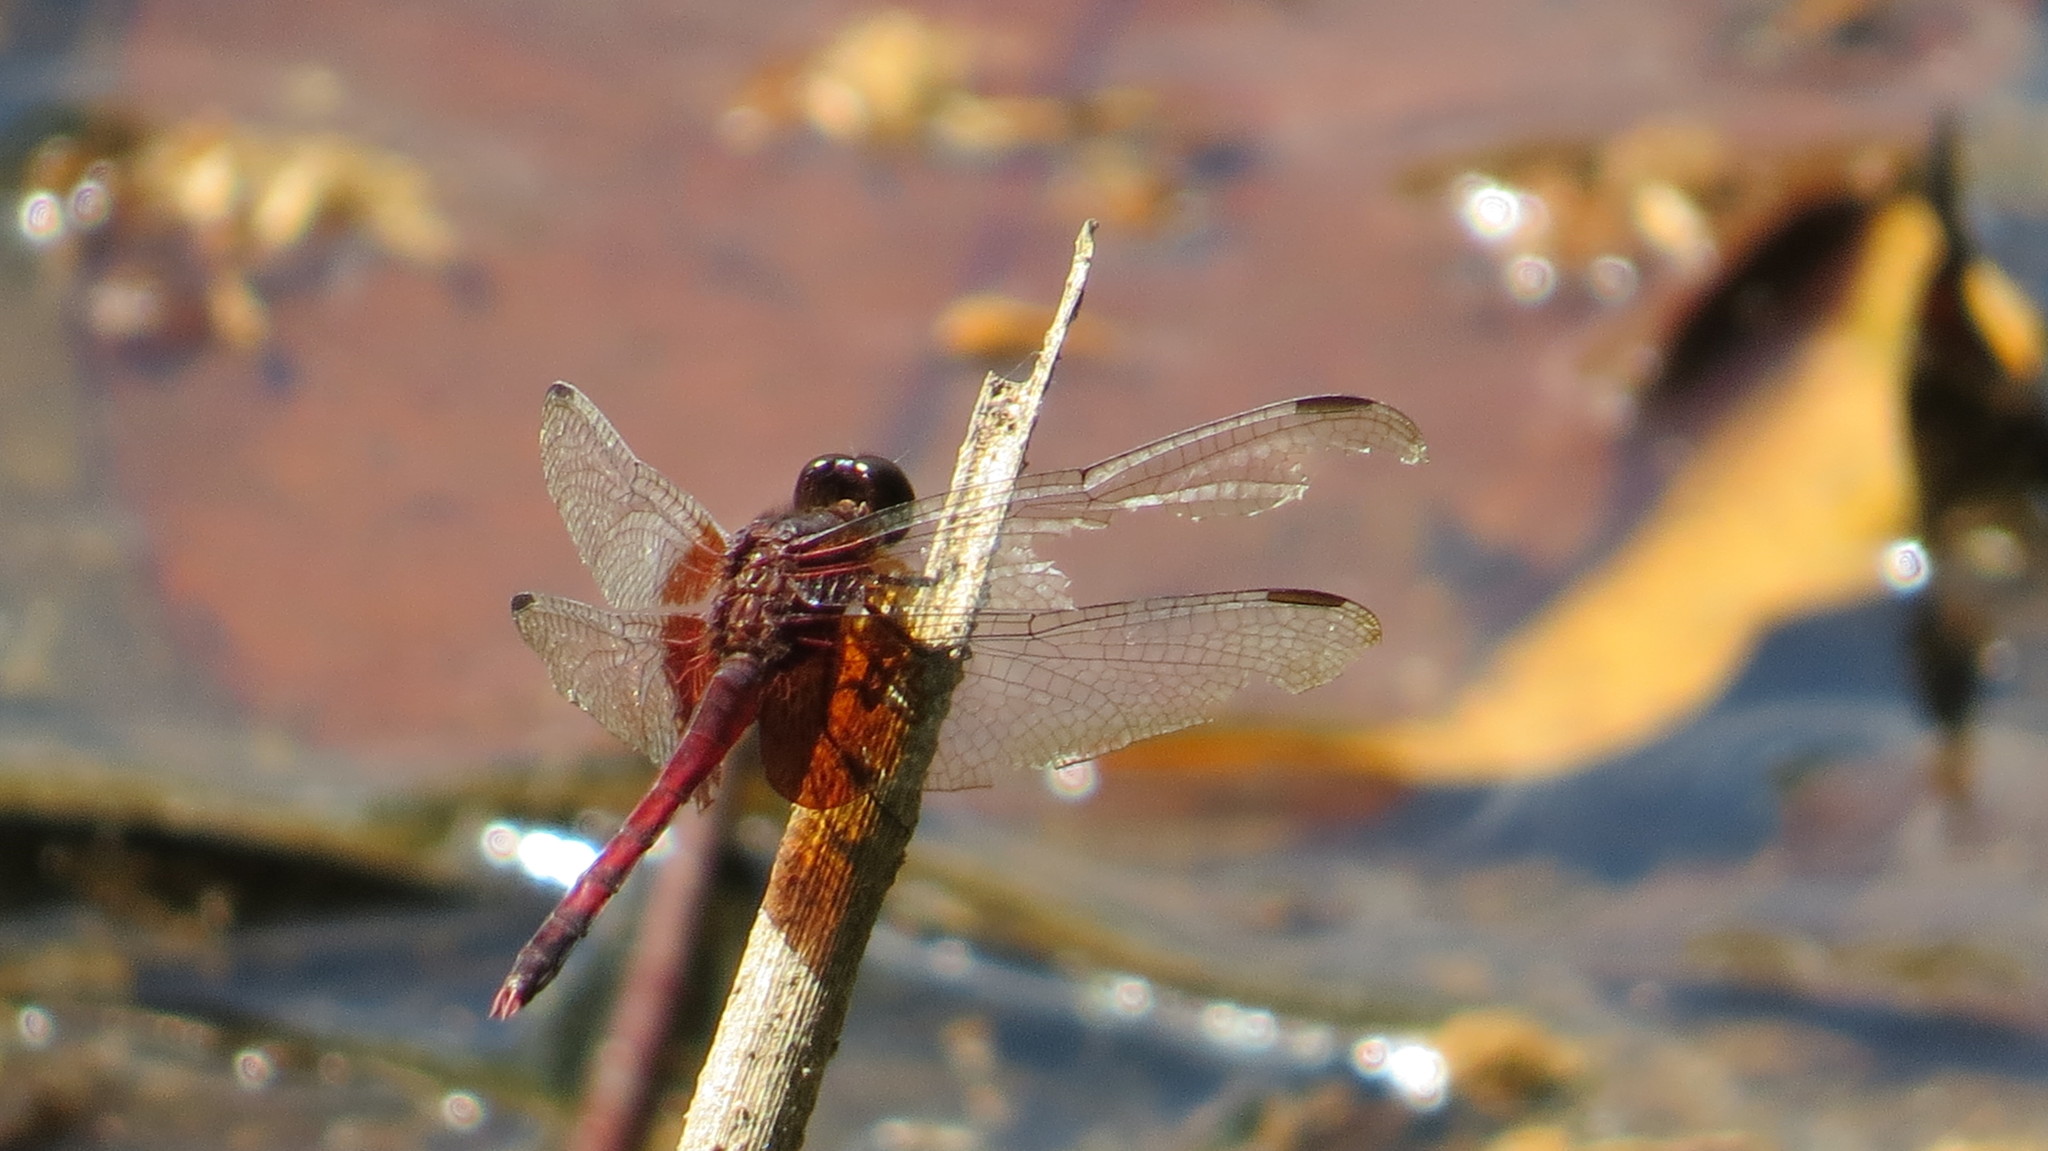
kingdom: Animalia
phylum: Arthropoda
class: Insecta
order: Odonata
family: Libellulidae
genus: Erythrodiplax
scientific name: Erythrodiplax fervida
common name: Red-mantled dragonlet
